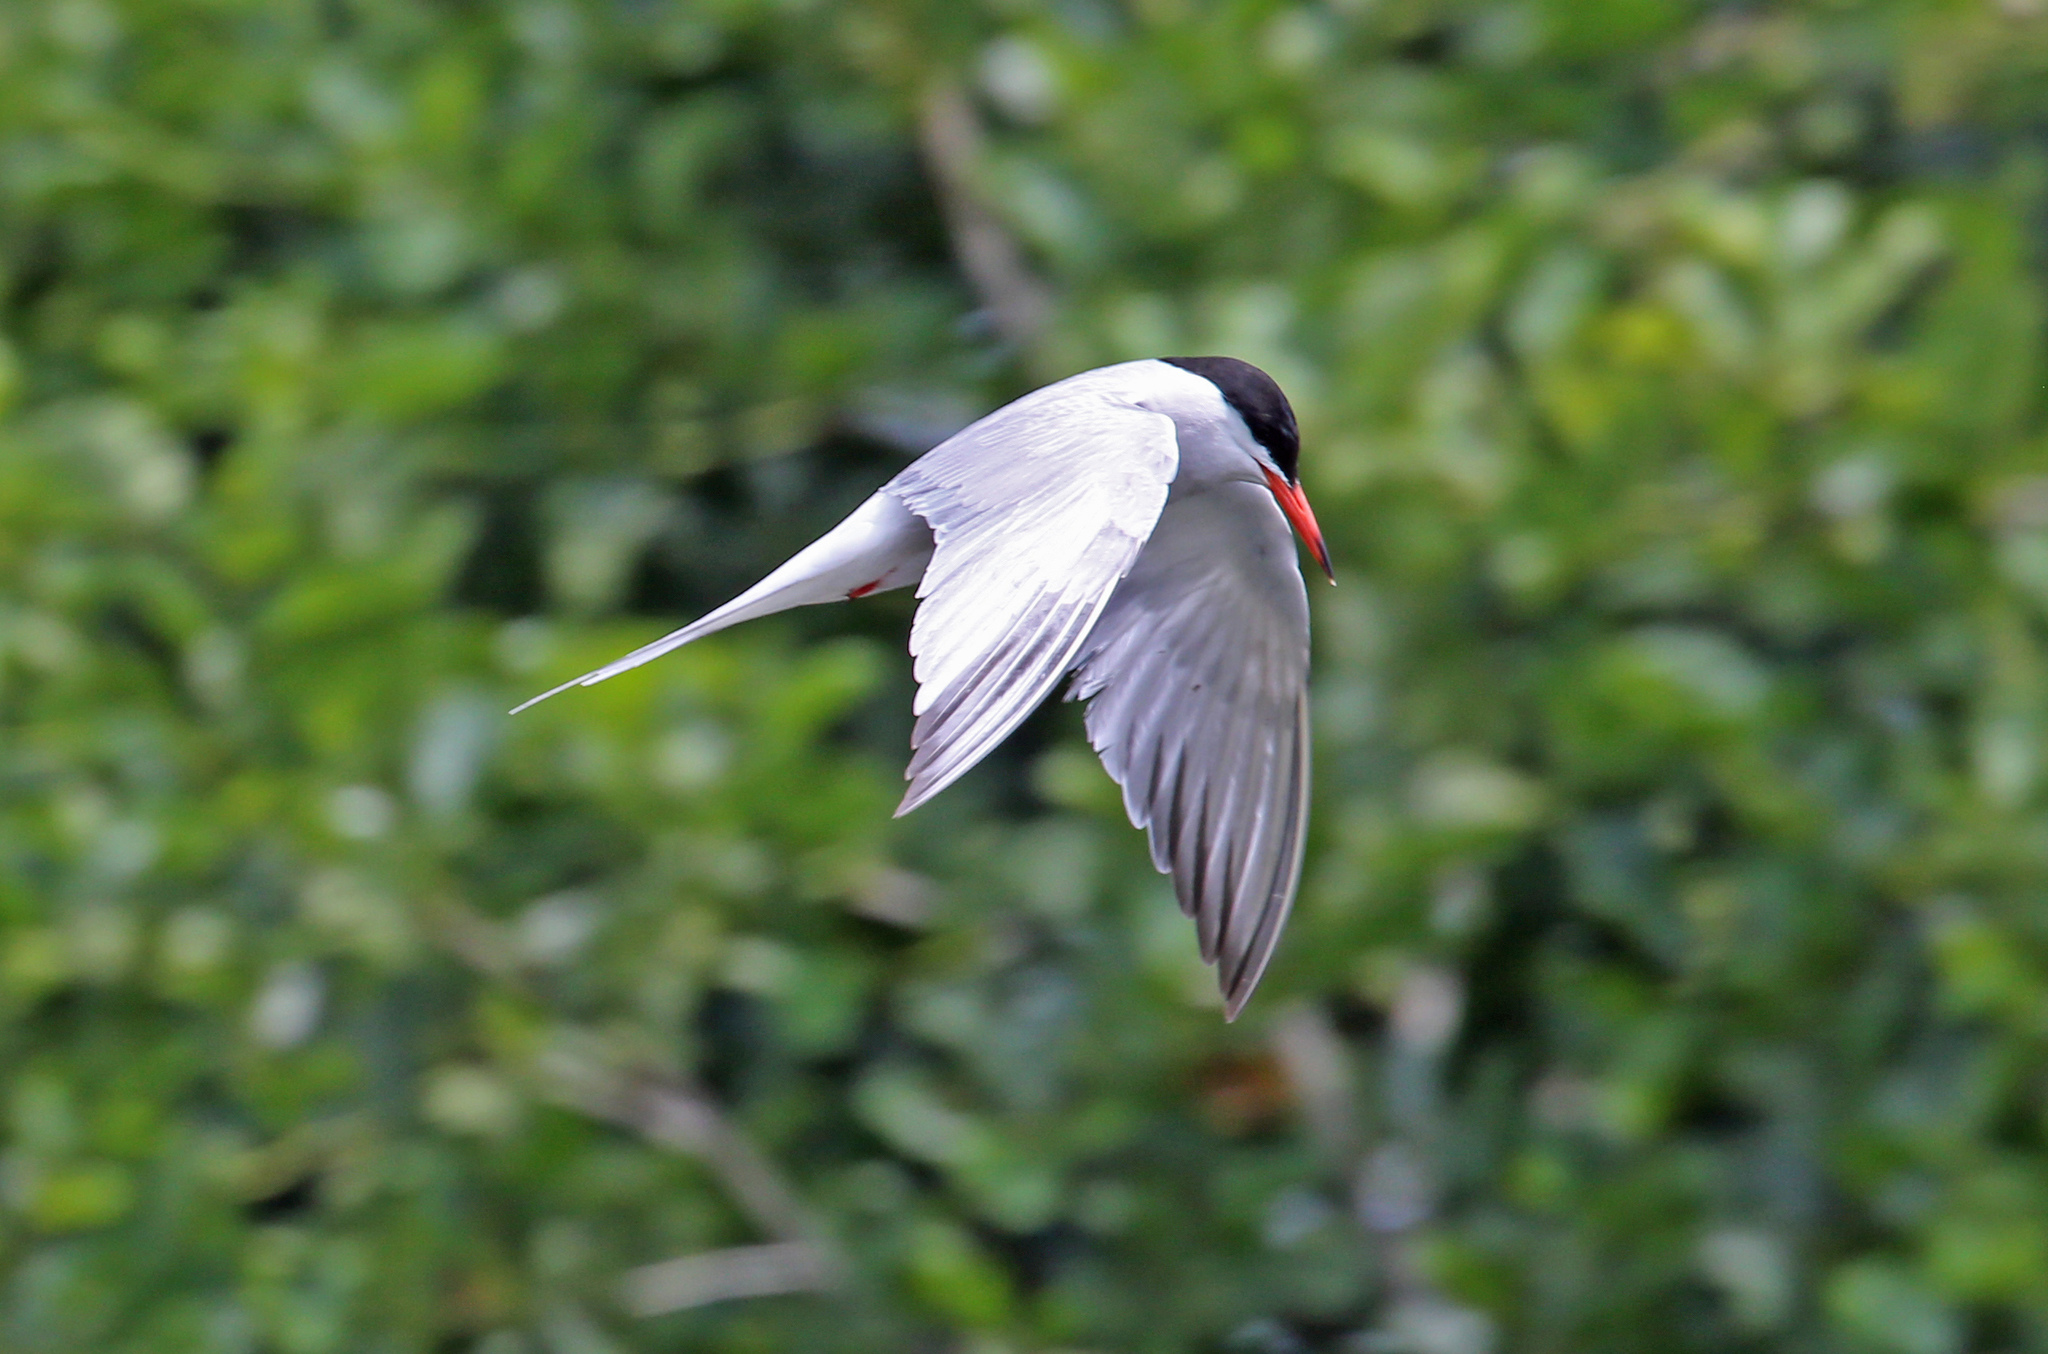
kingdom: Animalia
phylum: Chordata
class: Aves
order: Charadriiformes
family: Laridae
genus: Sterna
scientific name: Sterna hirundo
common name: Common tern
